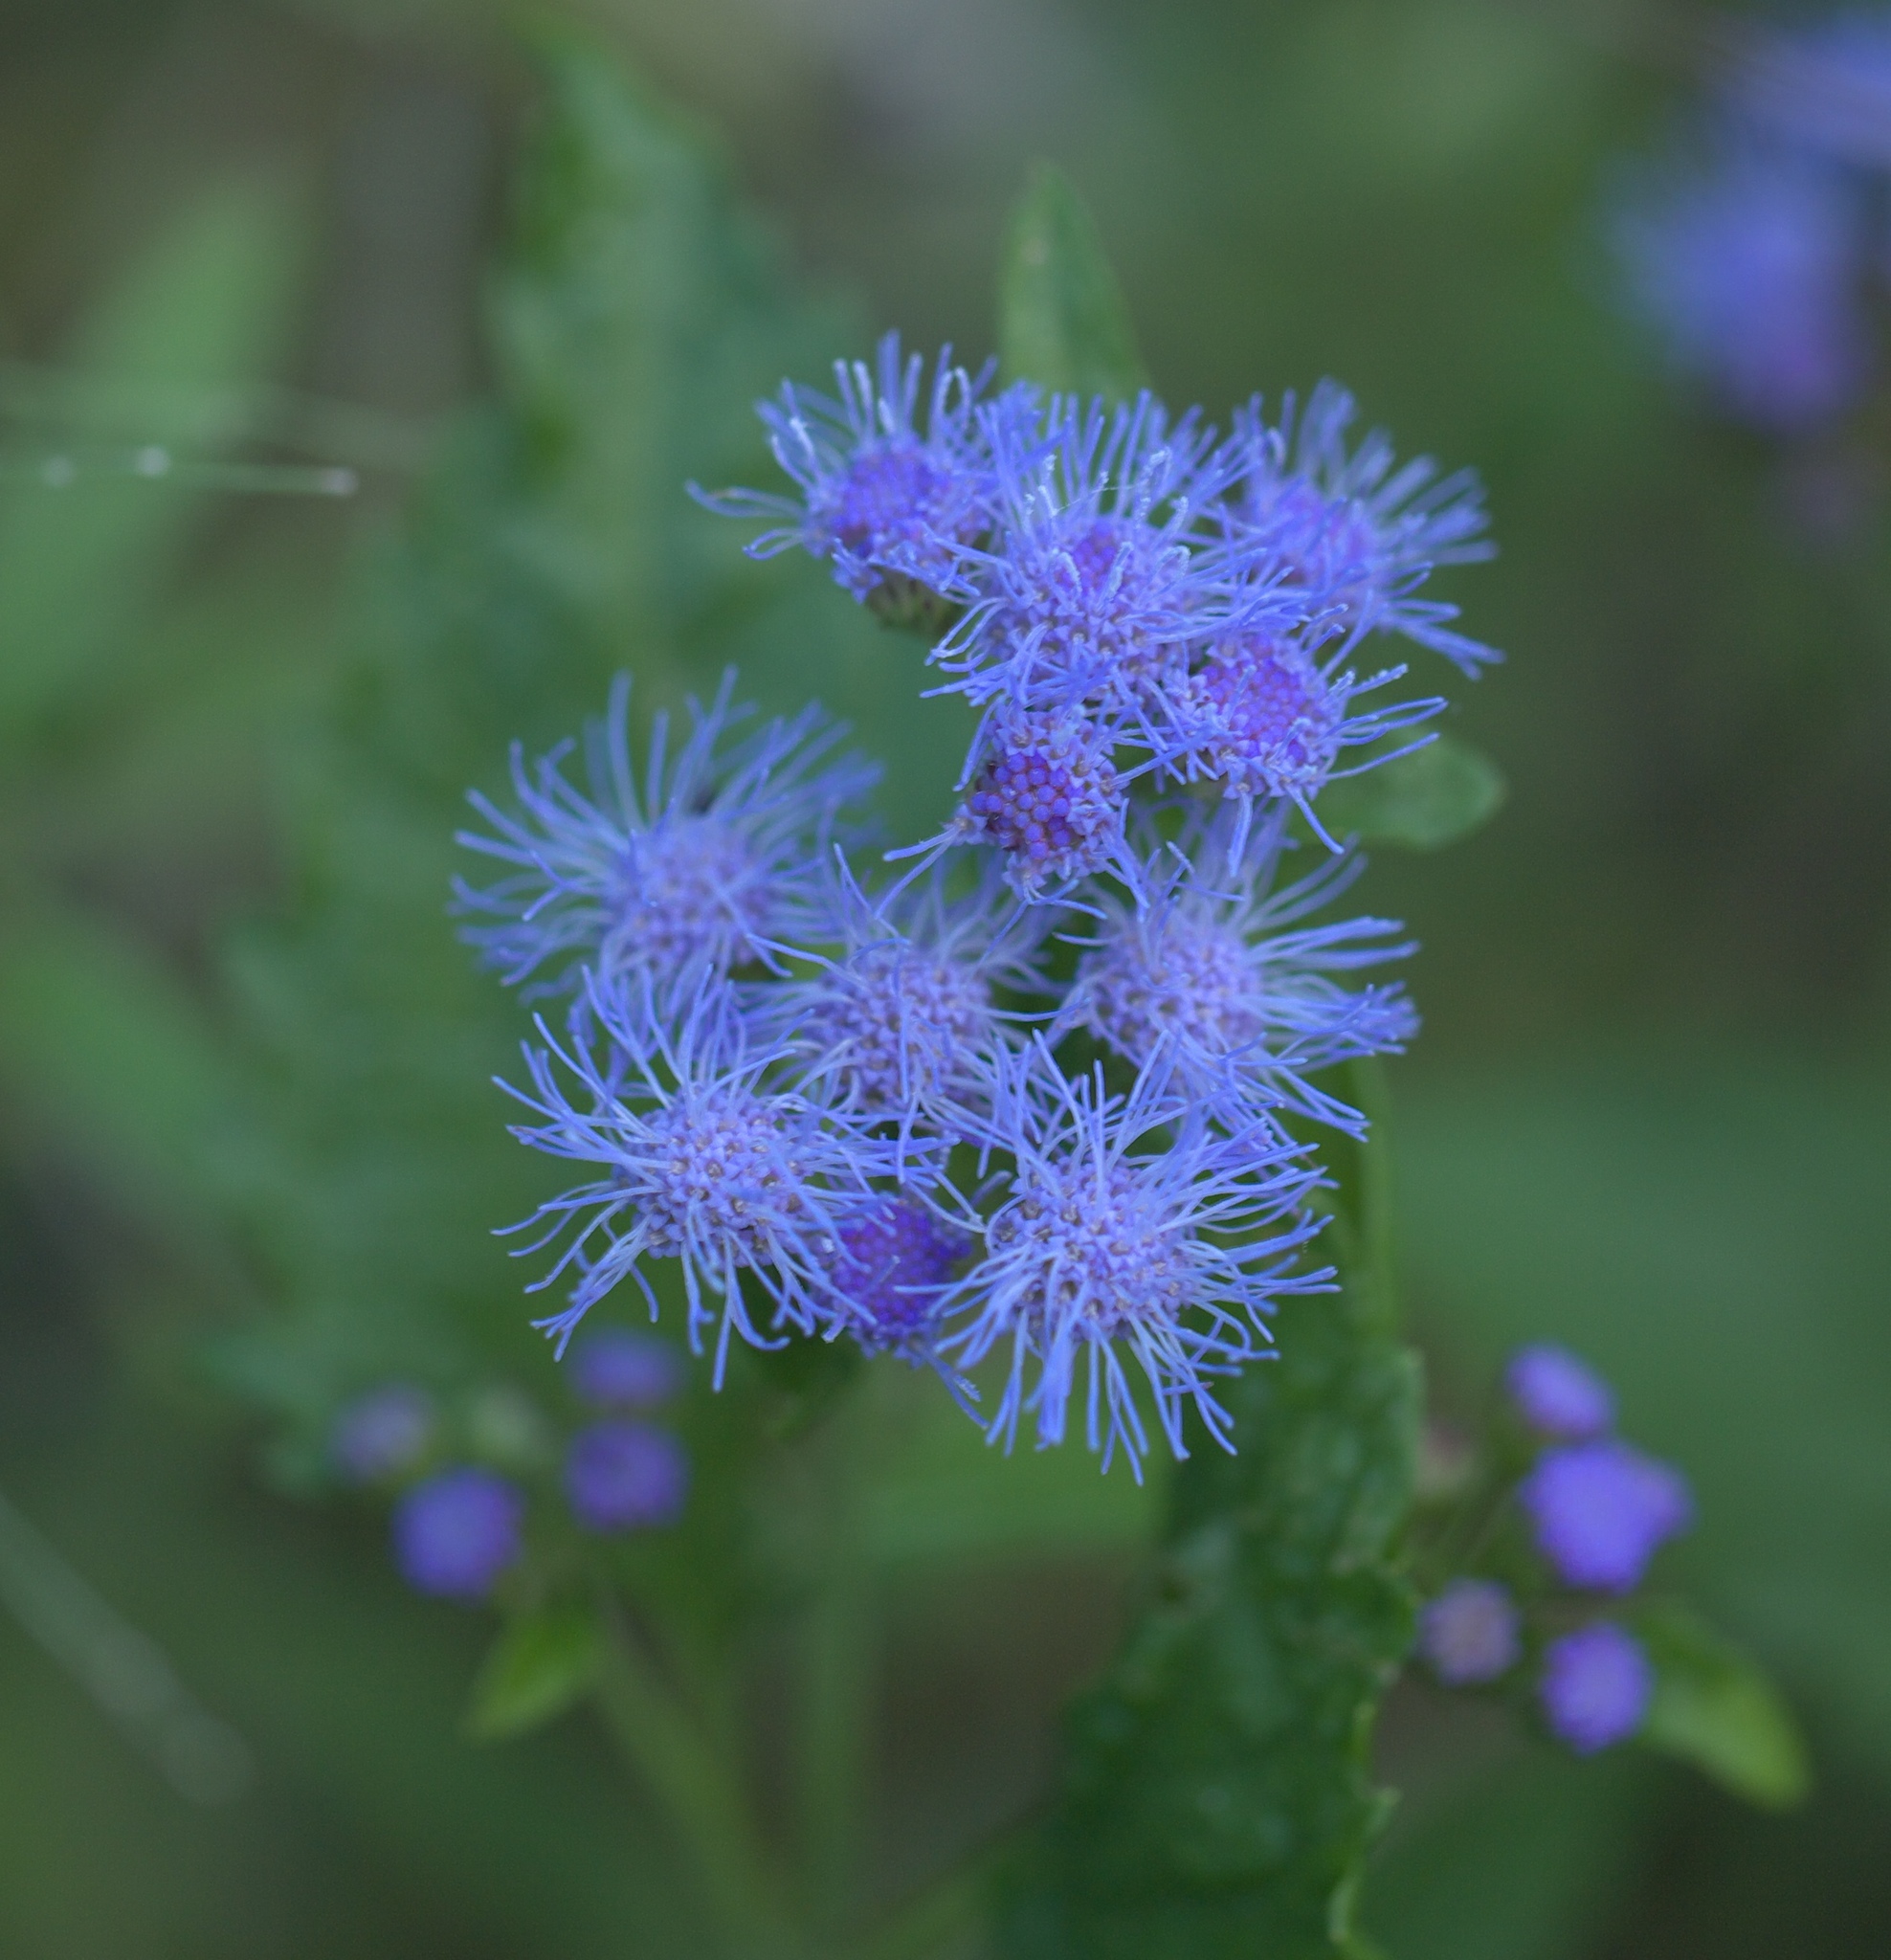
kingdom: Plantae
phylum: Tracheophyta
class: Magnoliopsida
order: Asterales
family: Asteraceae
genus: Conoclinium
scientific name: Conoclinium coelestinum
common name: Blue mistflower
